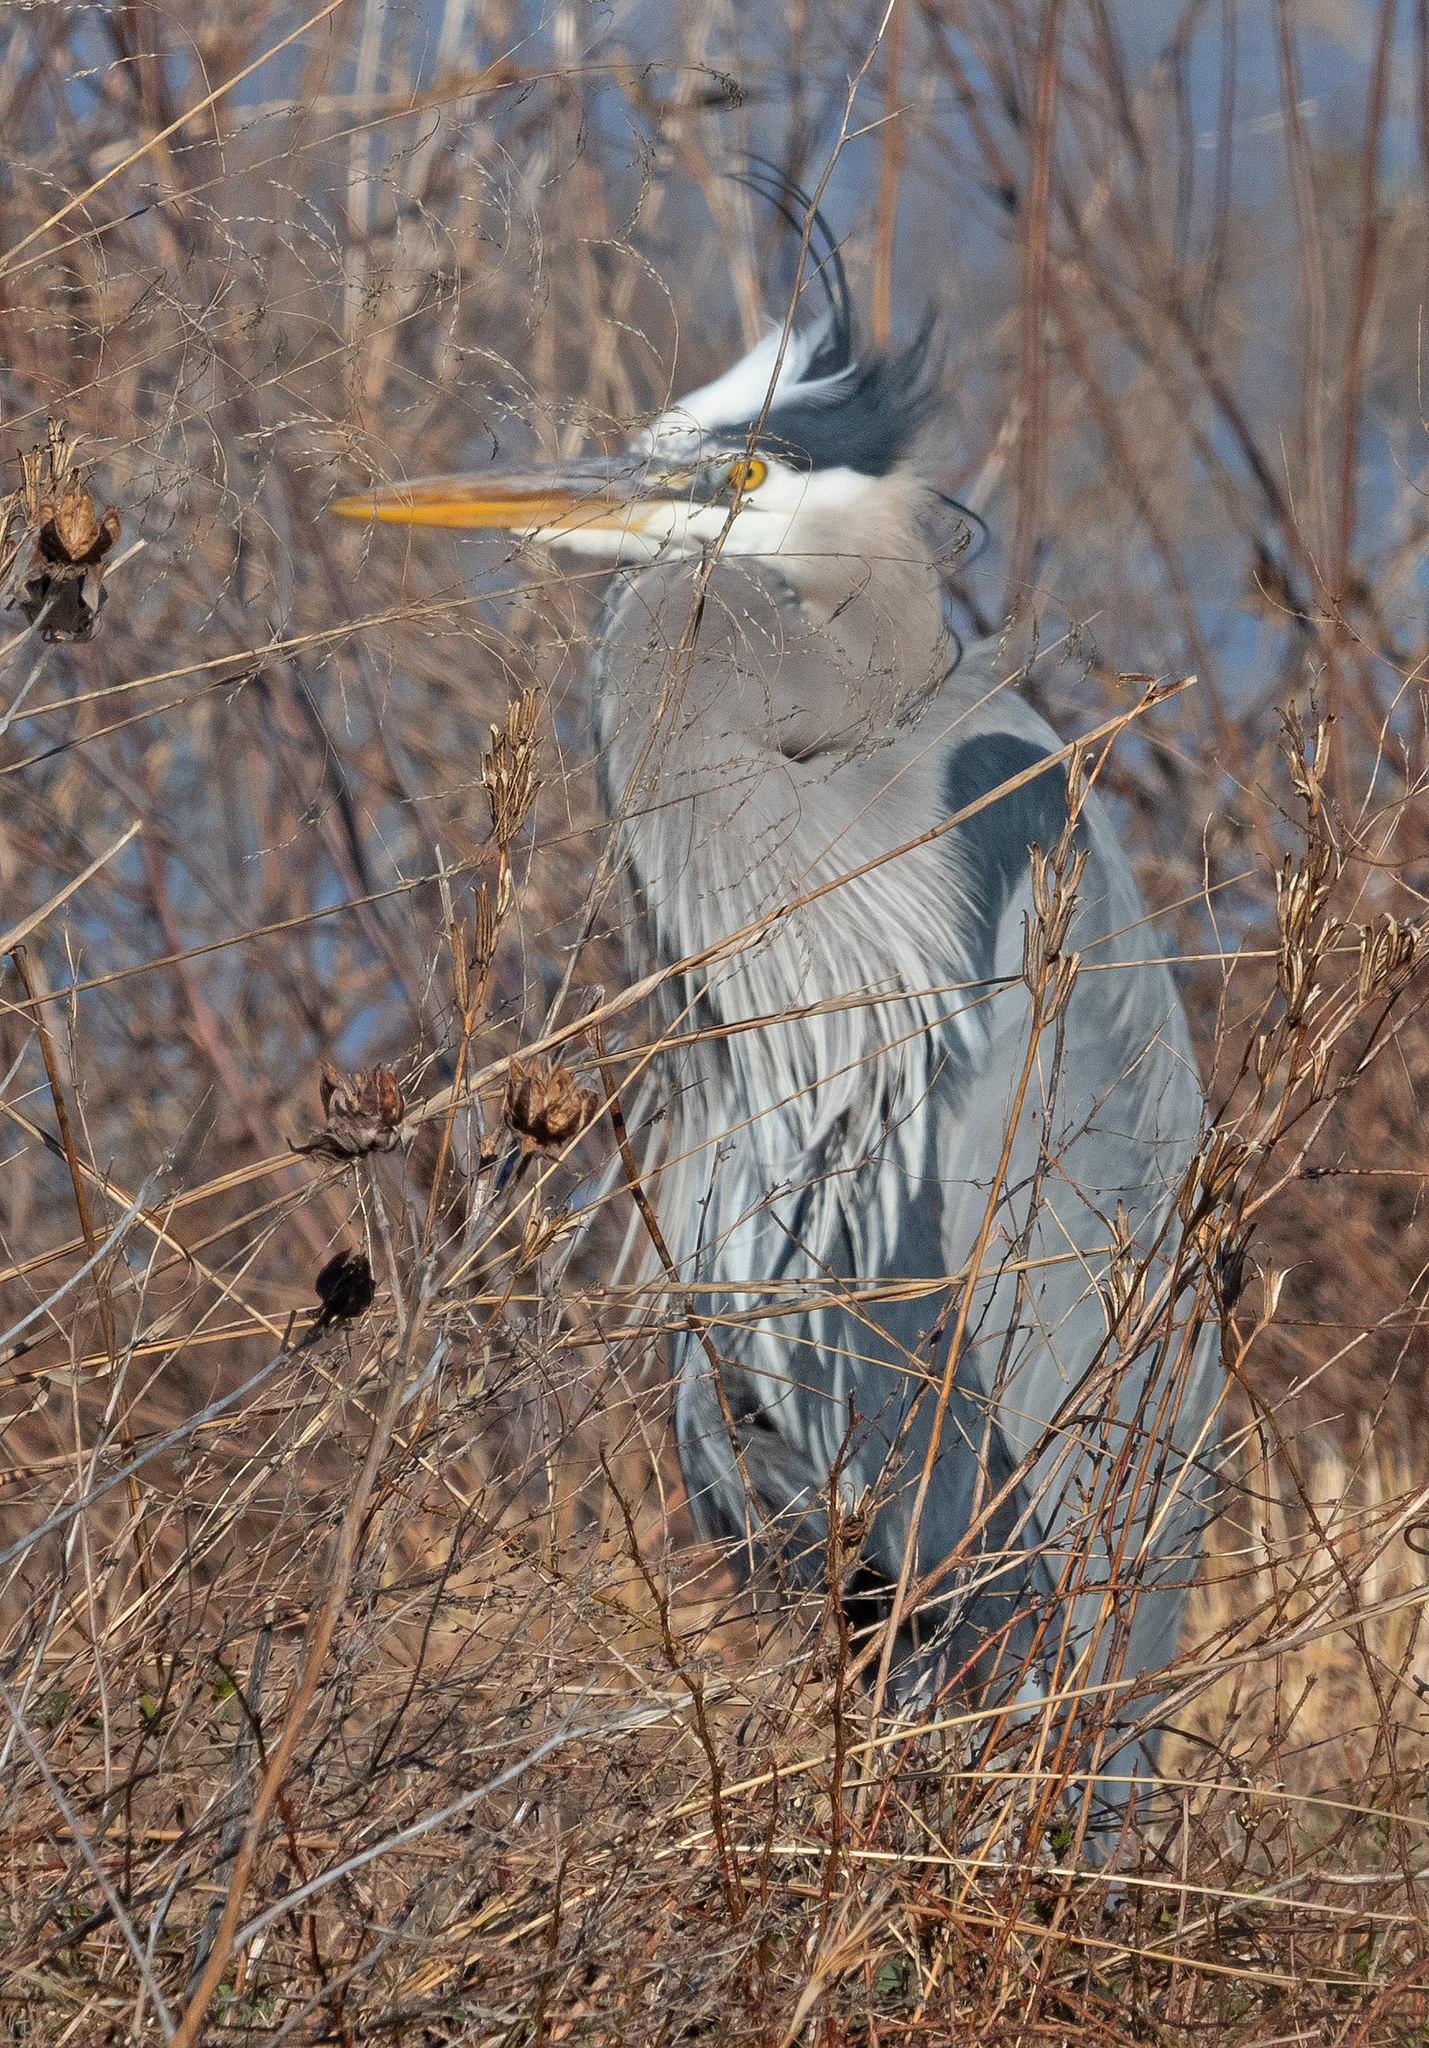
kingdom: Animalia
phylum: Chordata
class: Aves
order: Pelecaniformes
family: Ardeidae
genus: Ardea
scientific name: Ardea herodias
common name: Great blue heron
